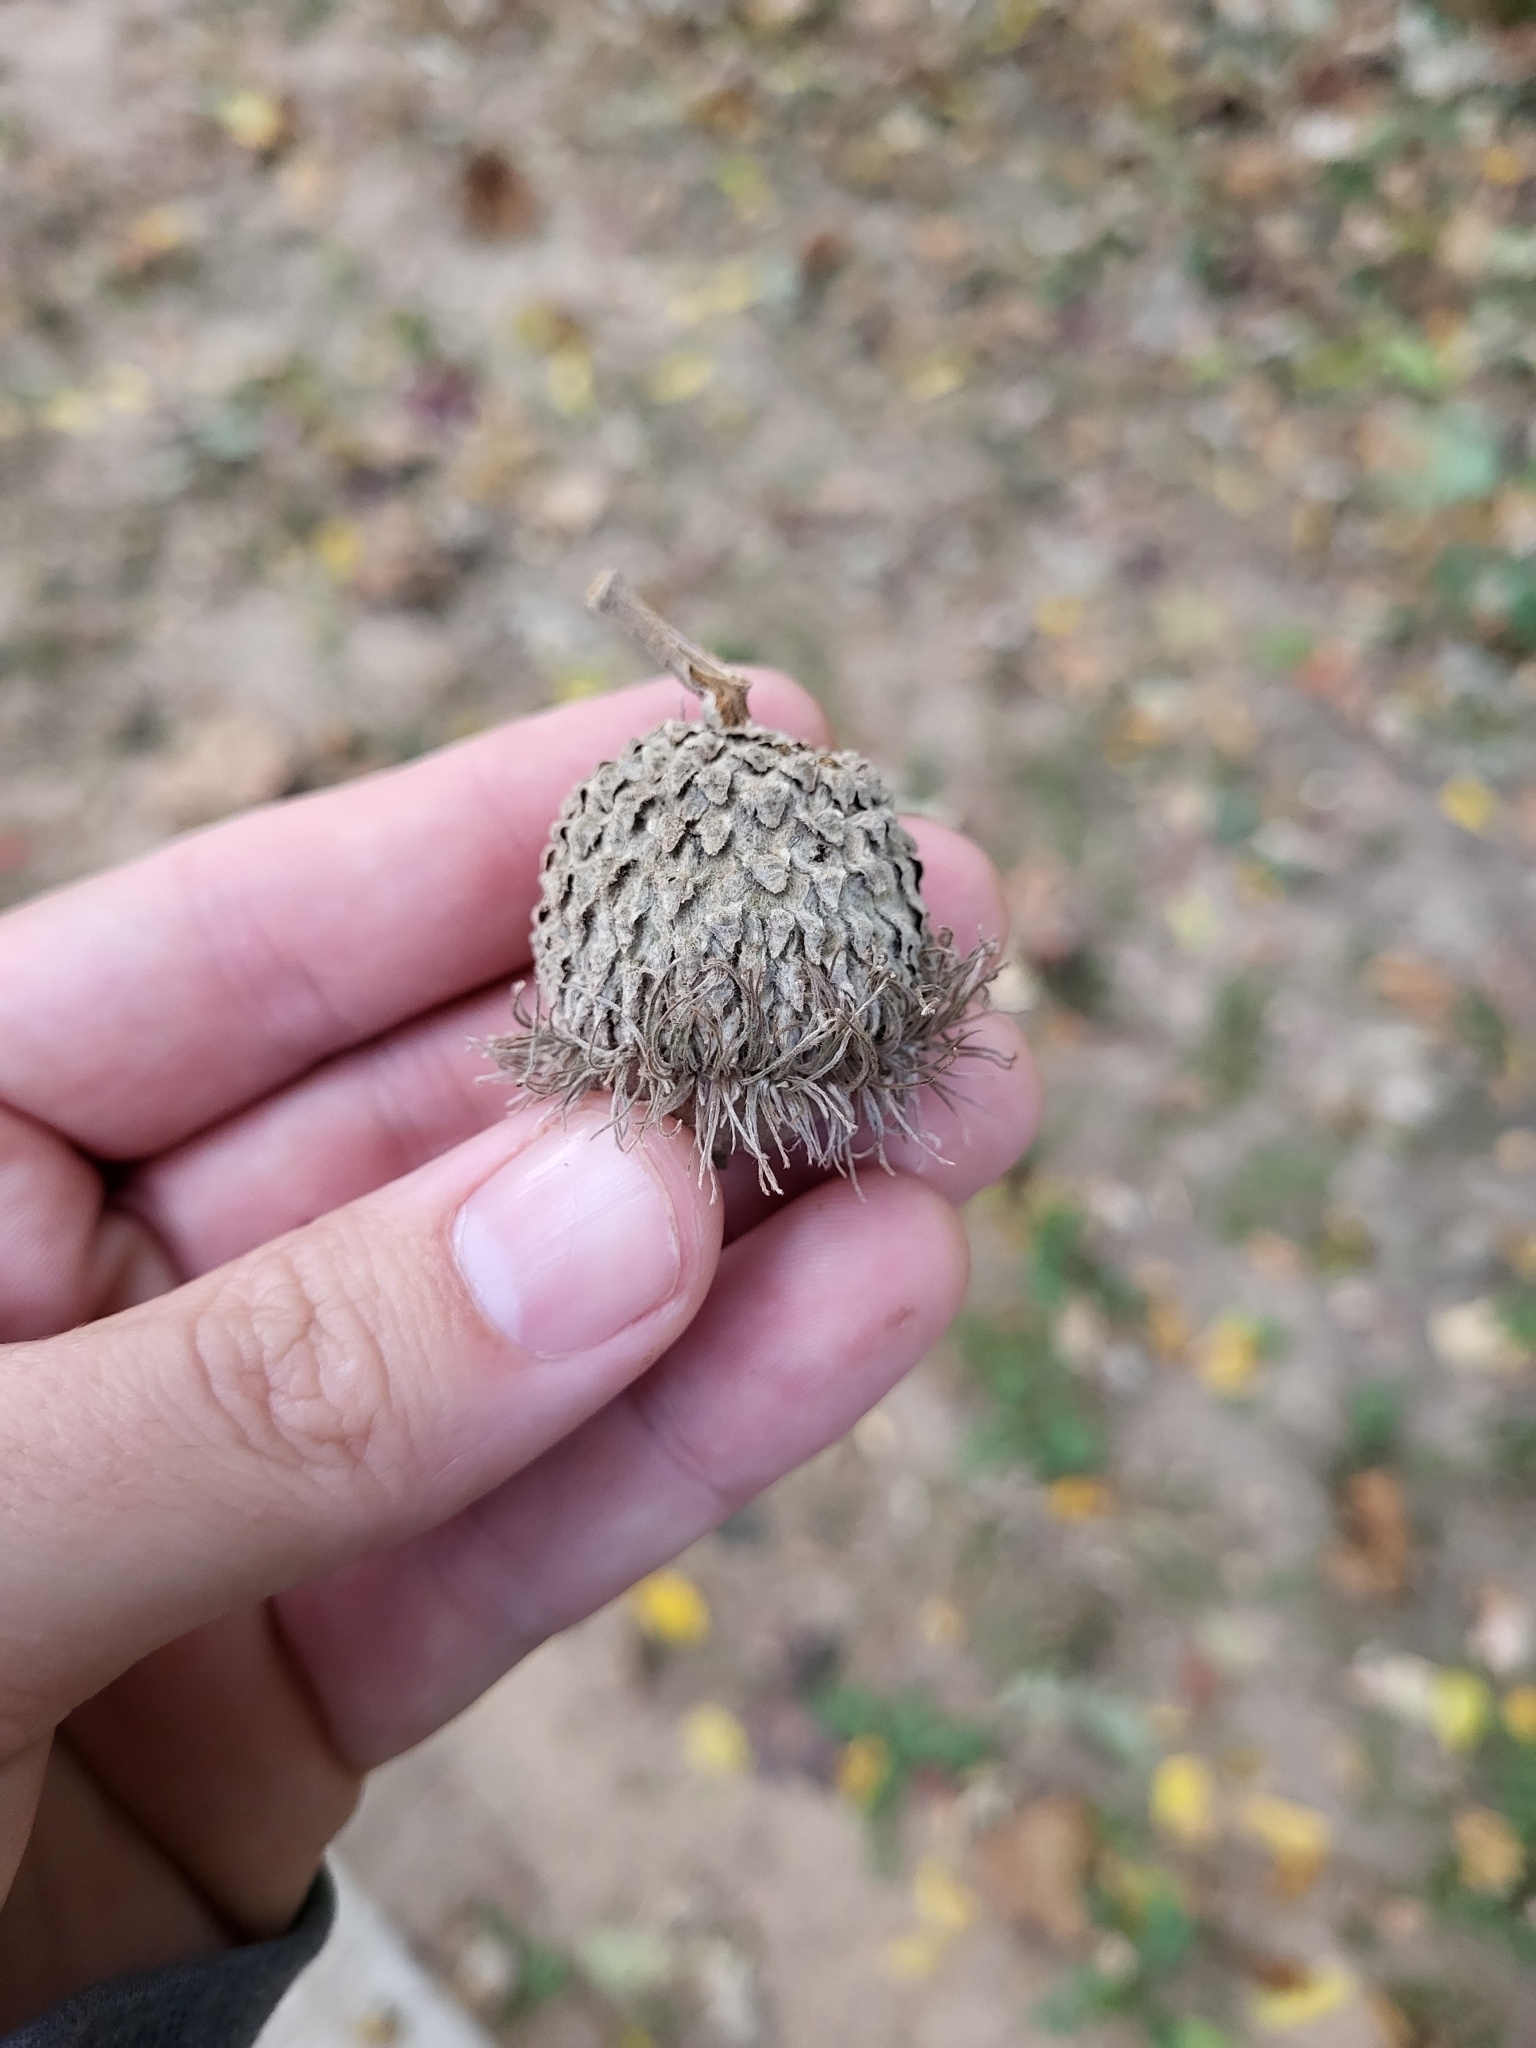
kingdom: Plantae
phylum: Tracheophyta
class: Magnoliopsida
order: Fagales
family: Fagaceae
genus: Quercus
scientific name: Quercus macrocarpa
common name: Bur oak
